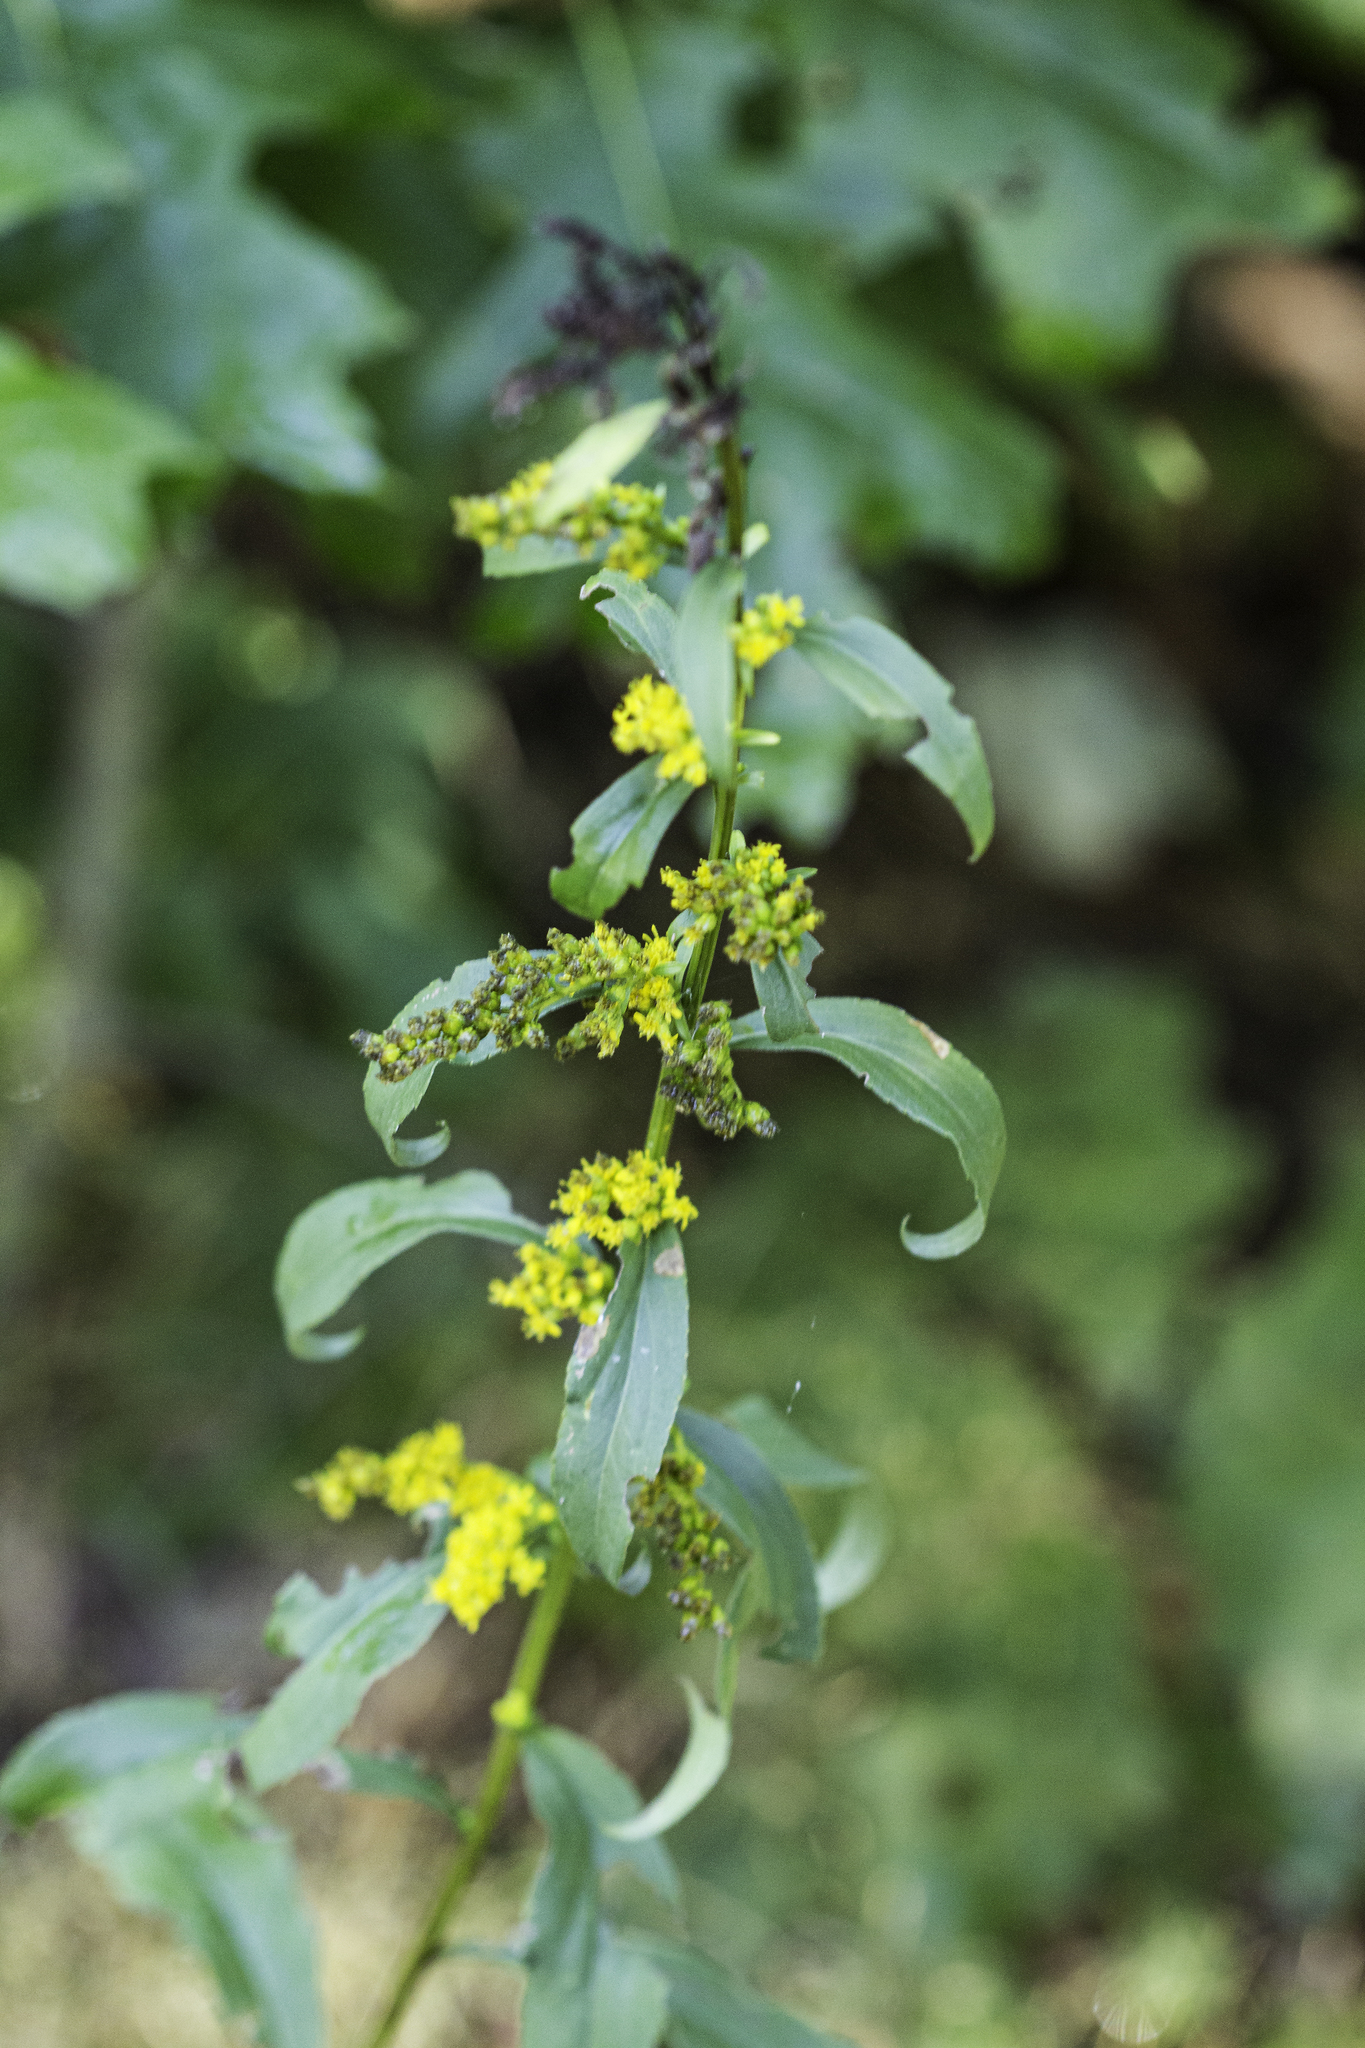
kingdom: Plantae
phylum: Tracheophyta
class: Magnoliopsida
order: Asterales
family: Asteraceae
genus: Solidago
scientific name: Solidago patula
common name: Rough-leaf goldenrod
